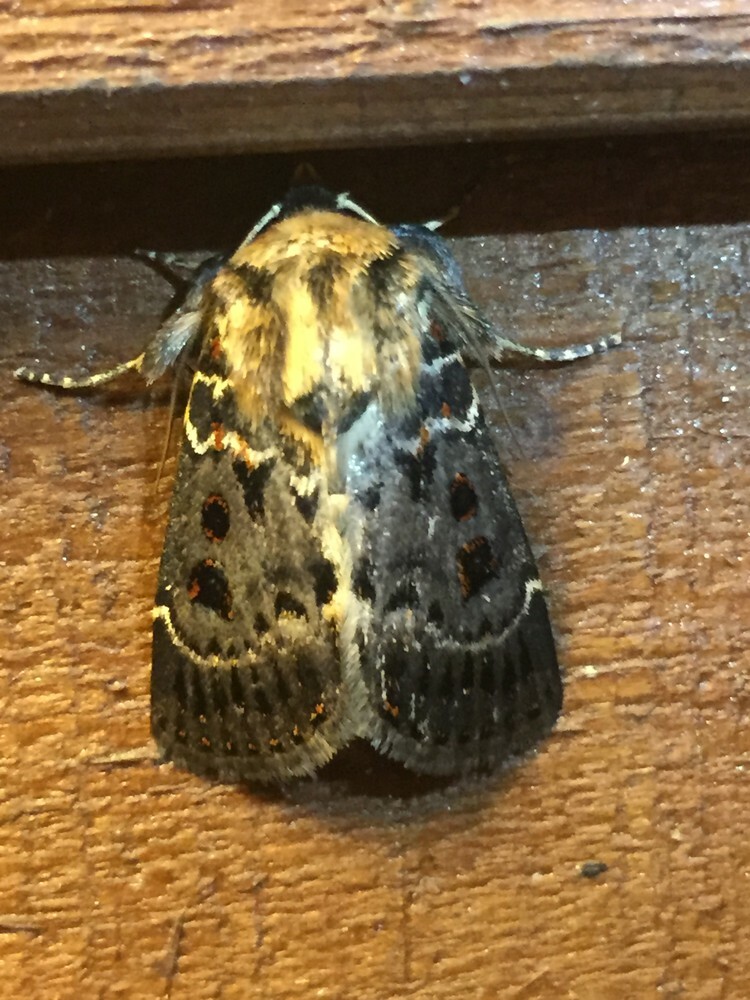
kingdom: Animalia
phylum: Arthropoda
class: Insecta
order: Lepidoptera
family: Noctuidae
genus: Proteuxoa
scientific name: Proteuxoa sanguinipuncta
